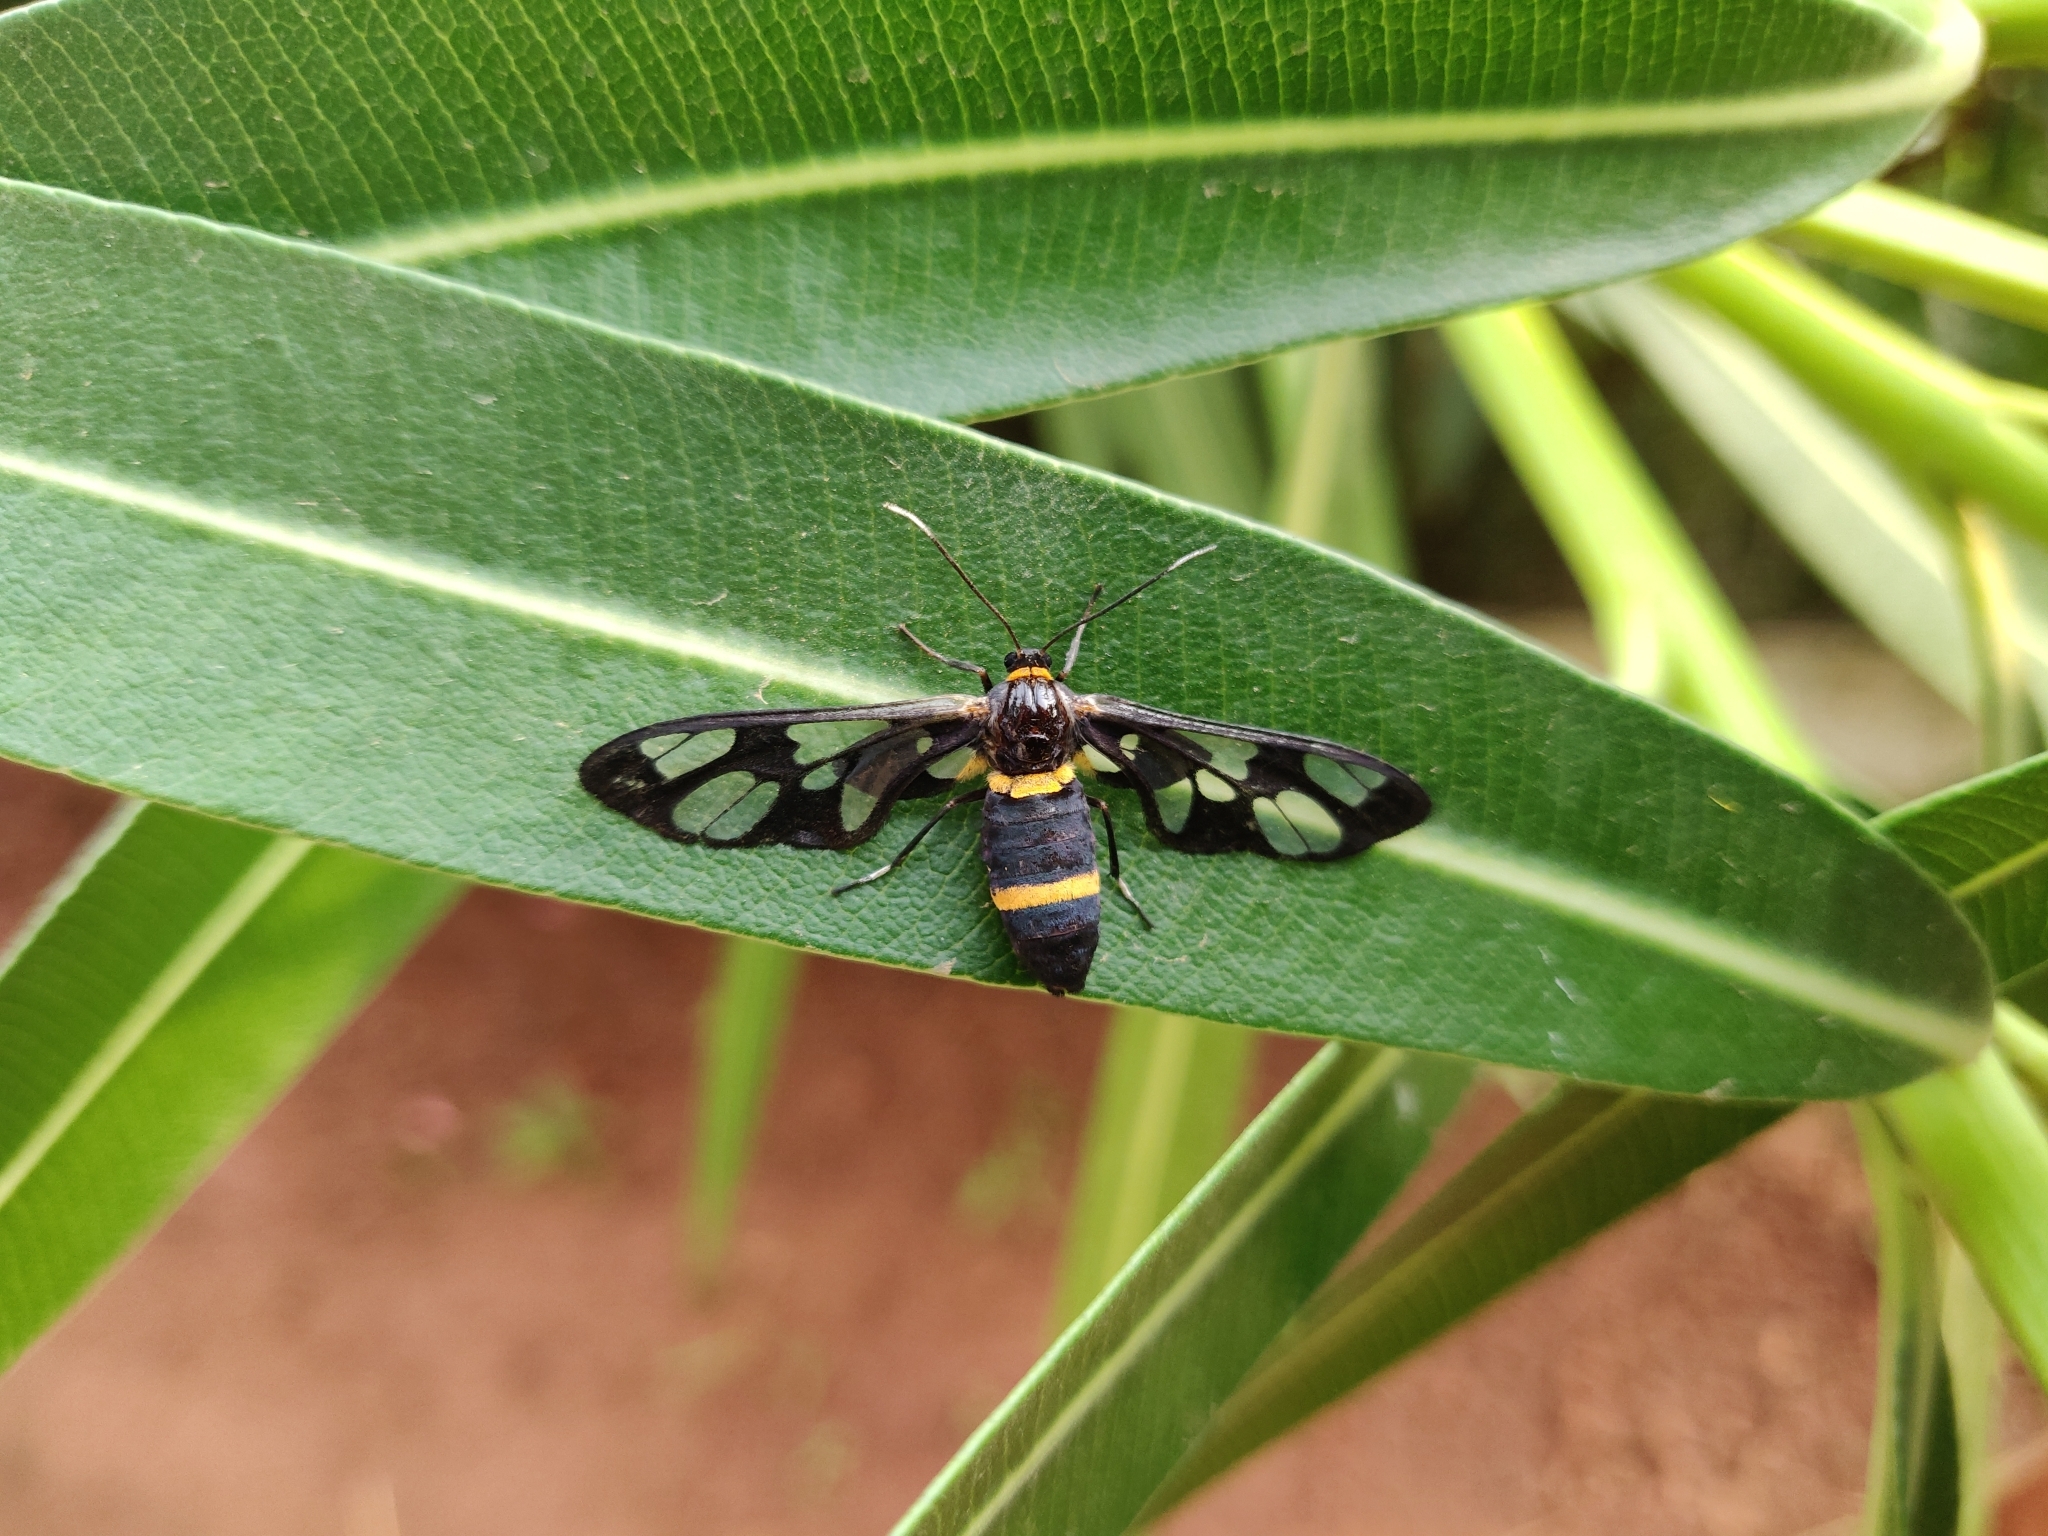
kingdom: Animalia
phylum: Arthropoda
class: Insecta
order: Lepidoptera
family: Erebidae
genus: Syntomoides
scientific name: Syntomoides imaon
